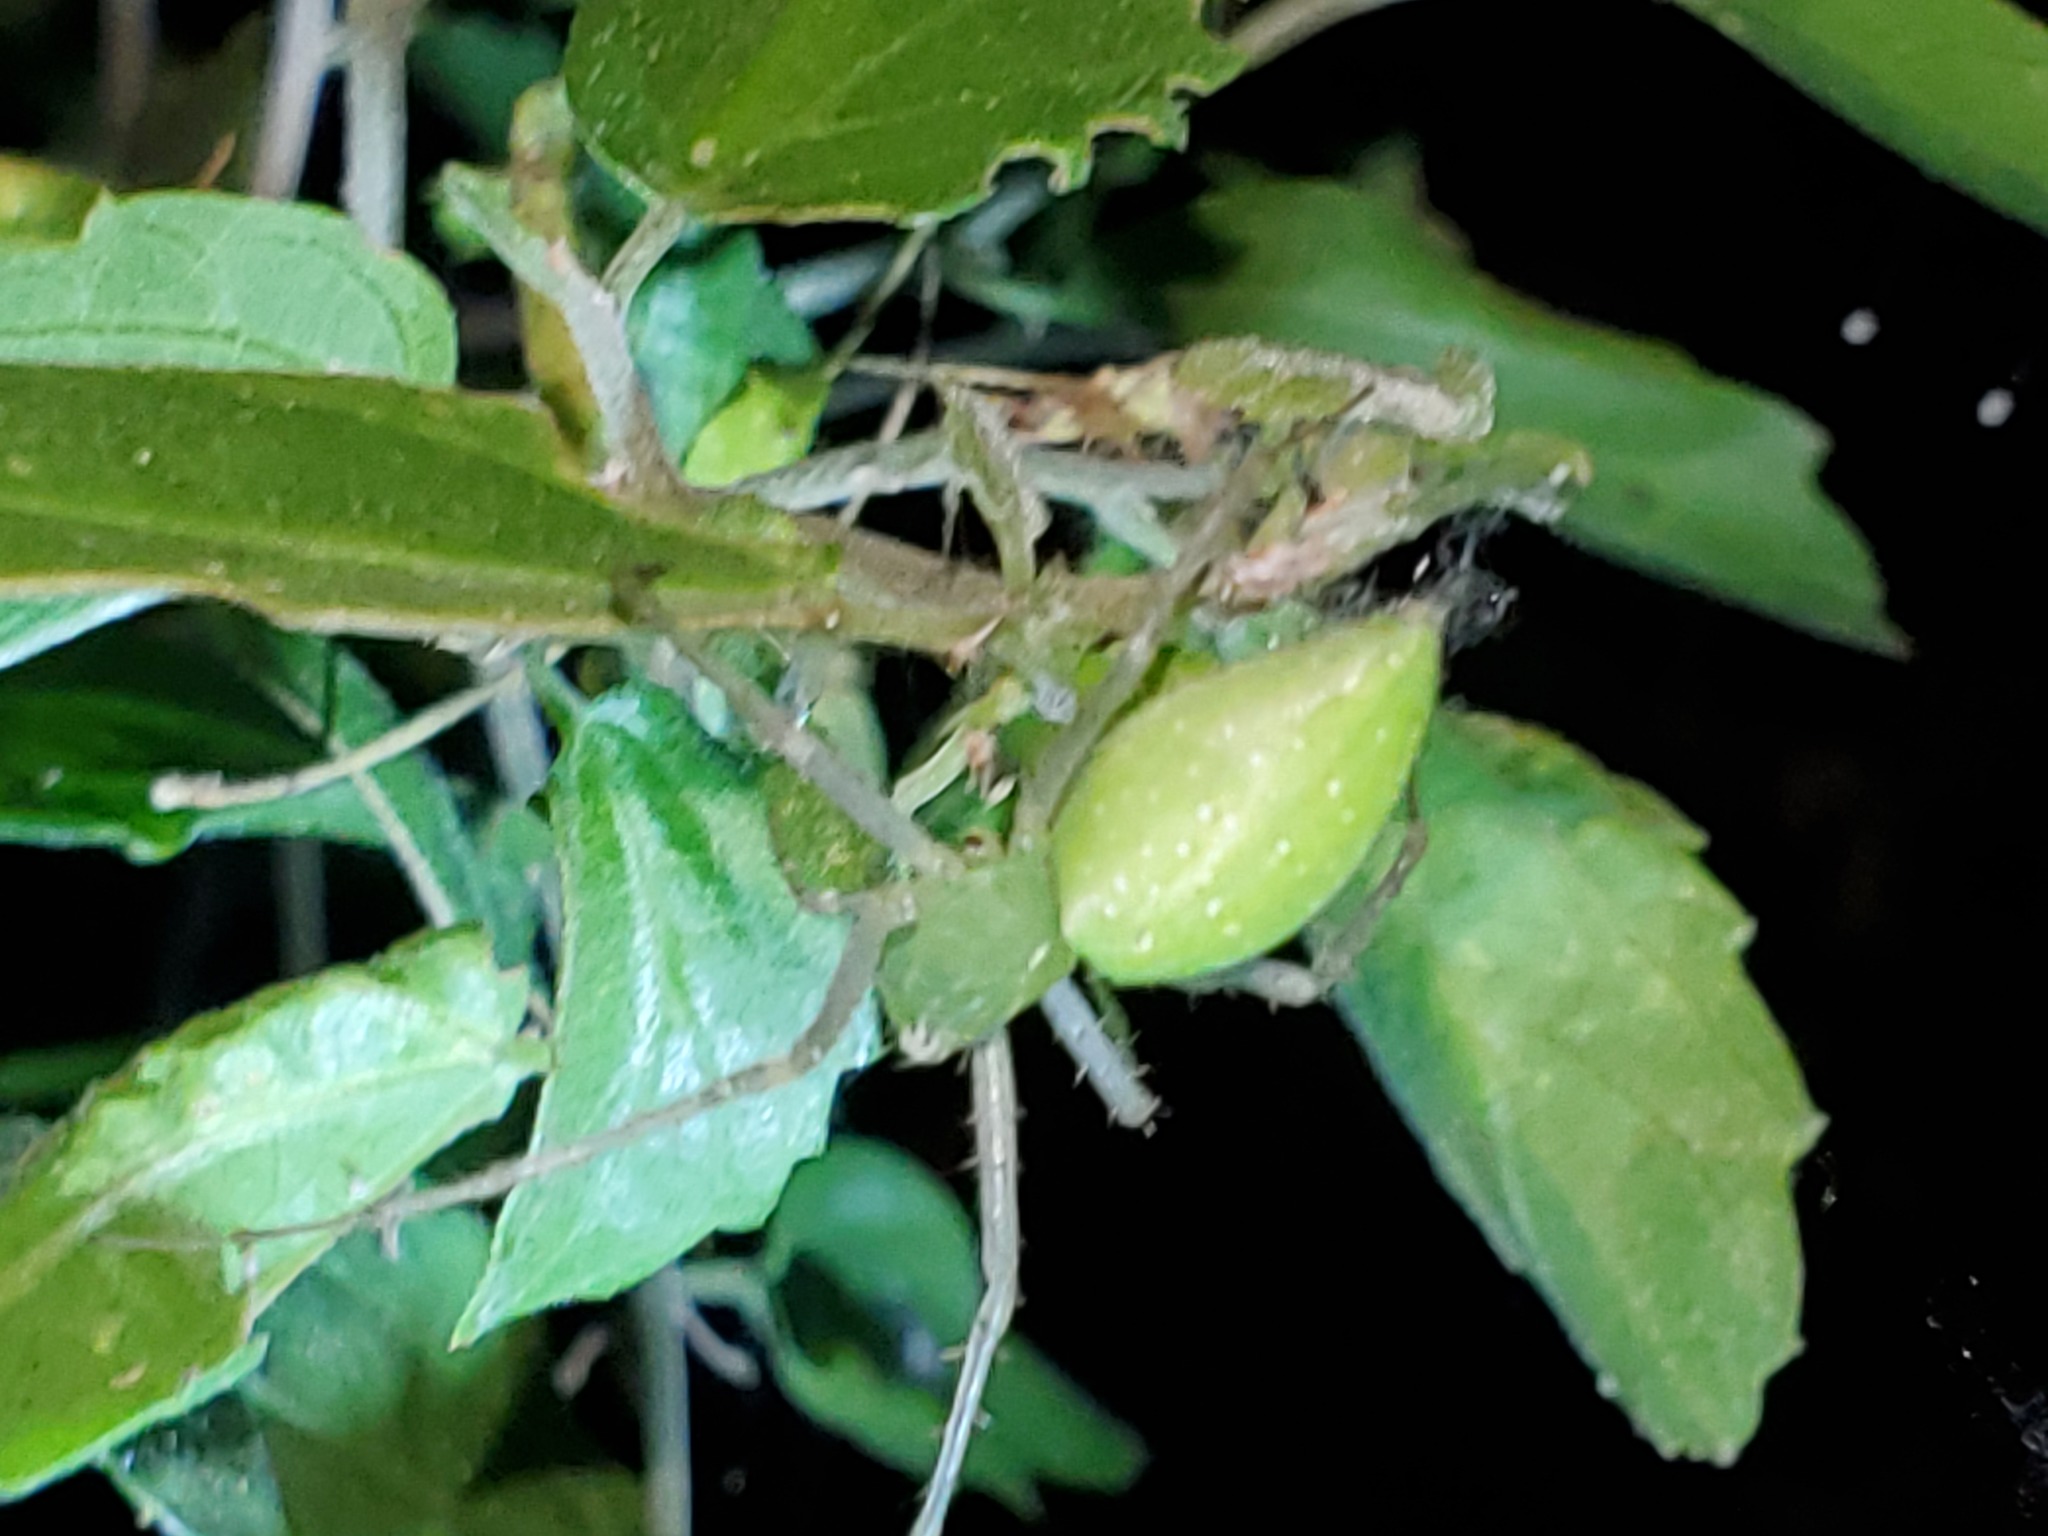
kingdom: Animalia
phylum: Arthropoda
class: Arachnida
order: Araneae
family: Oxyopidae
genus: Peucetia
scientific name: Peucetia longipalpis
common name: Lynx spiders
